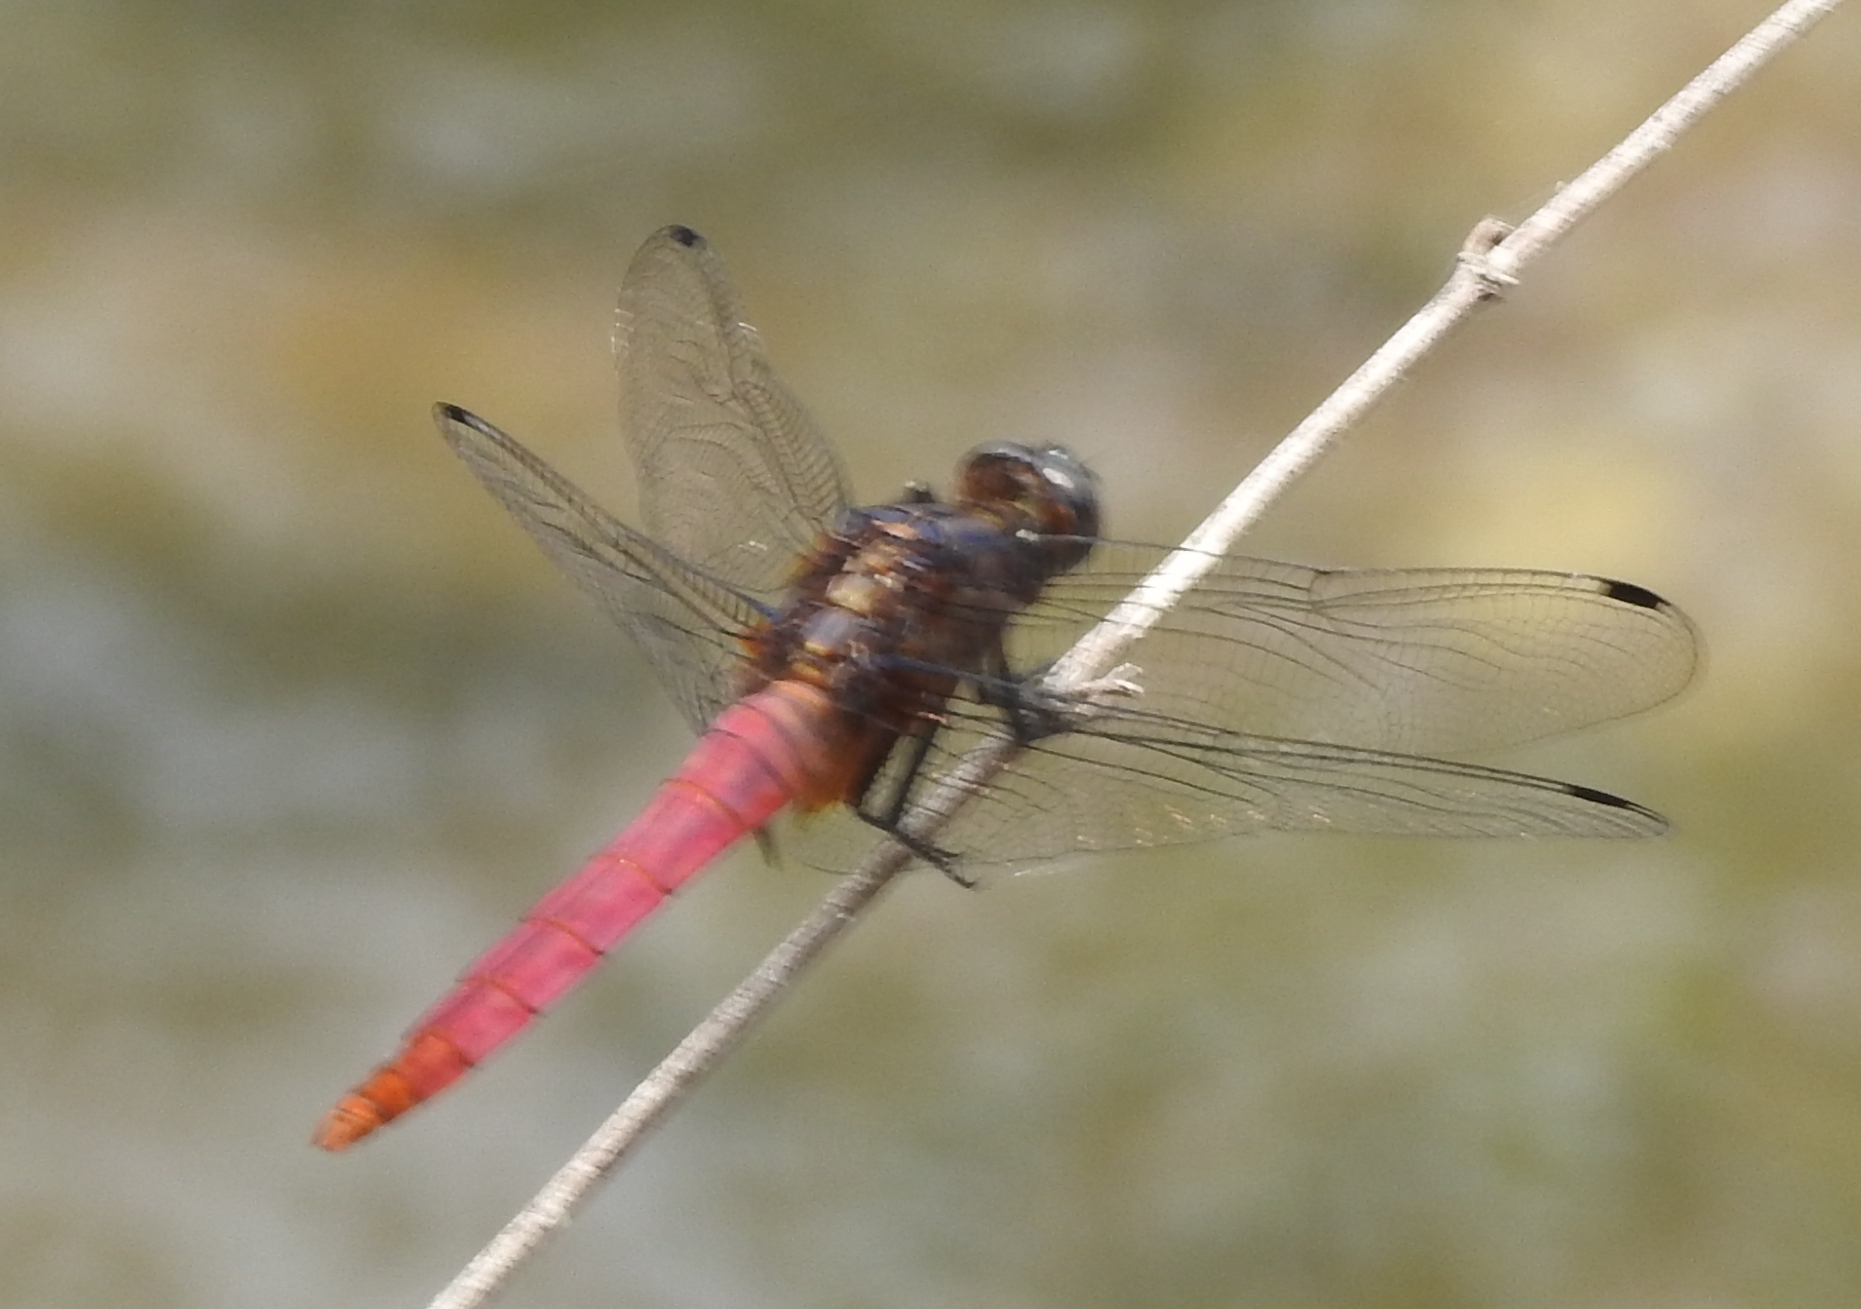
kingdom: Animalia
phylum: Arthropoda
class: Insecta
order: Odonata
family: Libellulidae
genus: Orthetrum
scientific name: Orthetrum pruinosum
